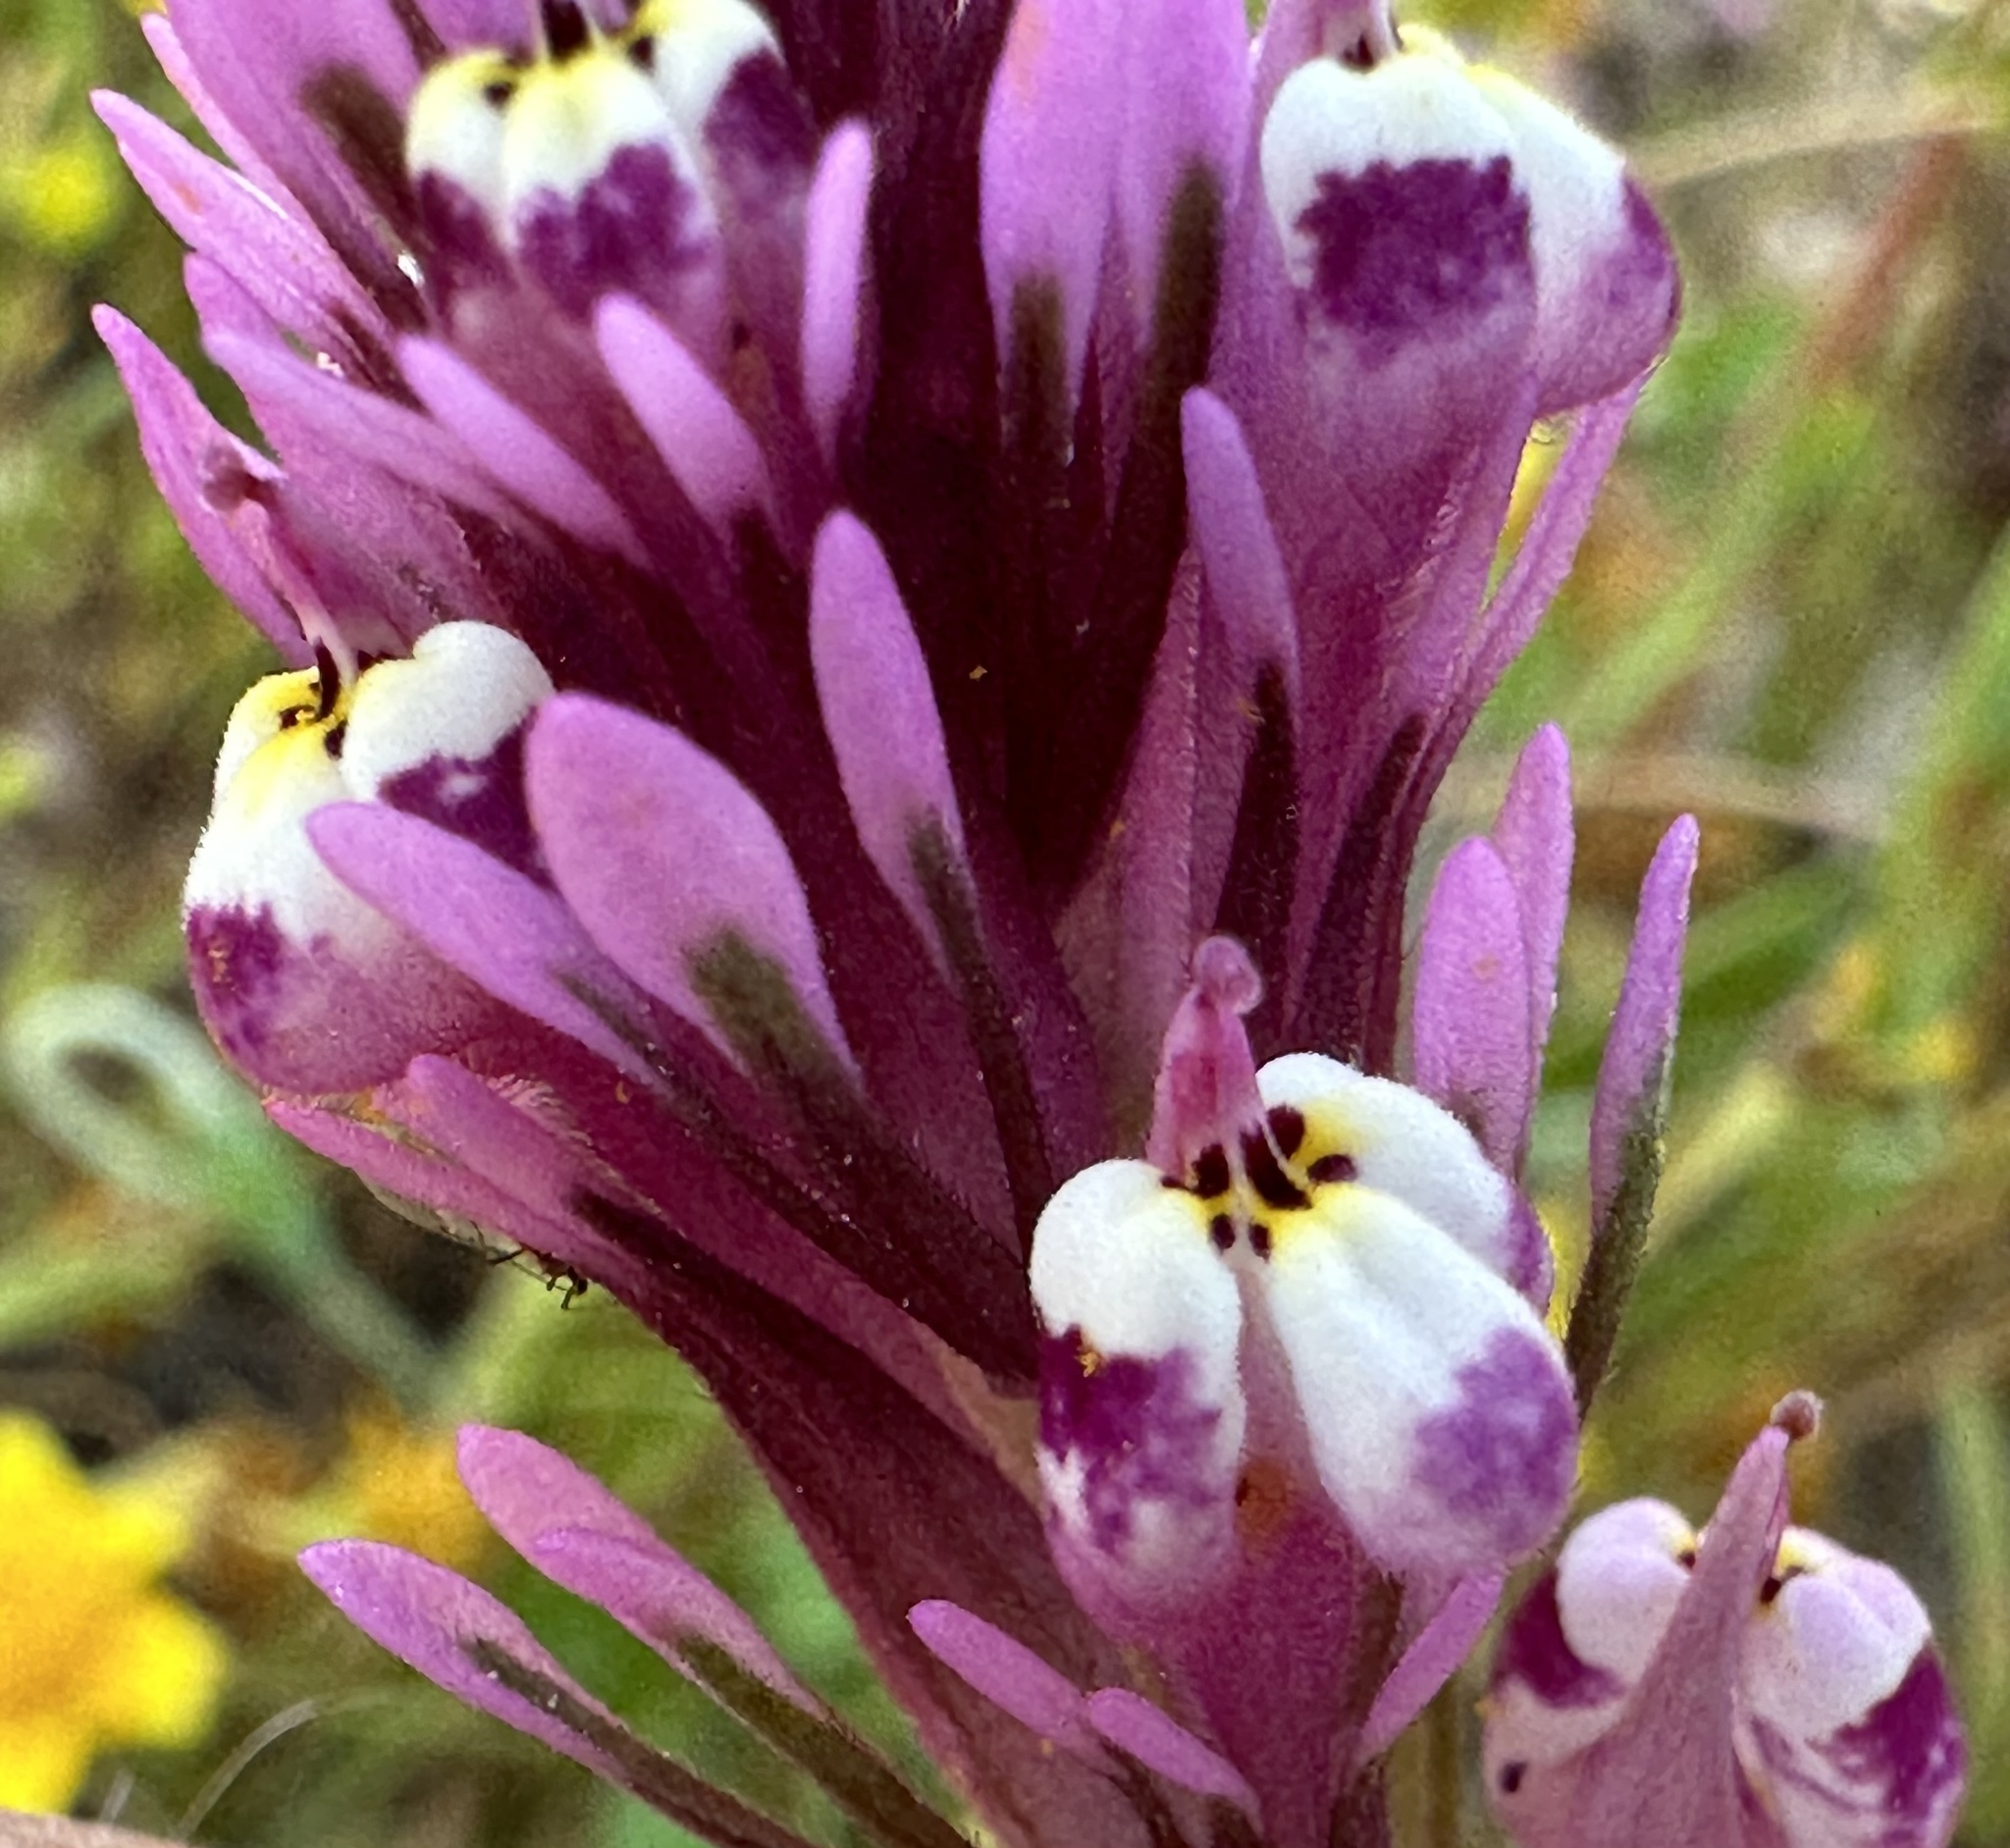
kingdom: Plantae
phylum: Tracheophyta
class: Magnoliopsida
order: Lamiales
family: Orobanchaceae
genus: Castilleja
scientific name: Castilleja densiflora
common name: Dense-flower indian paintbrush
